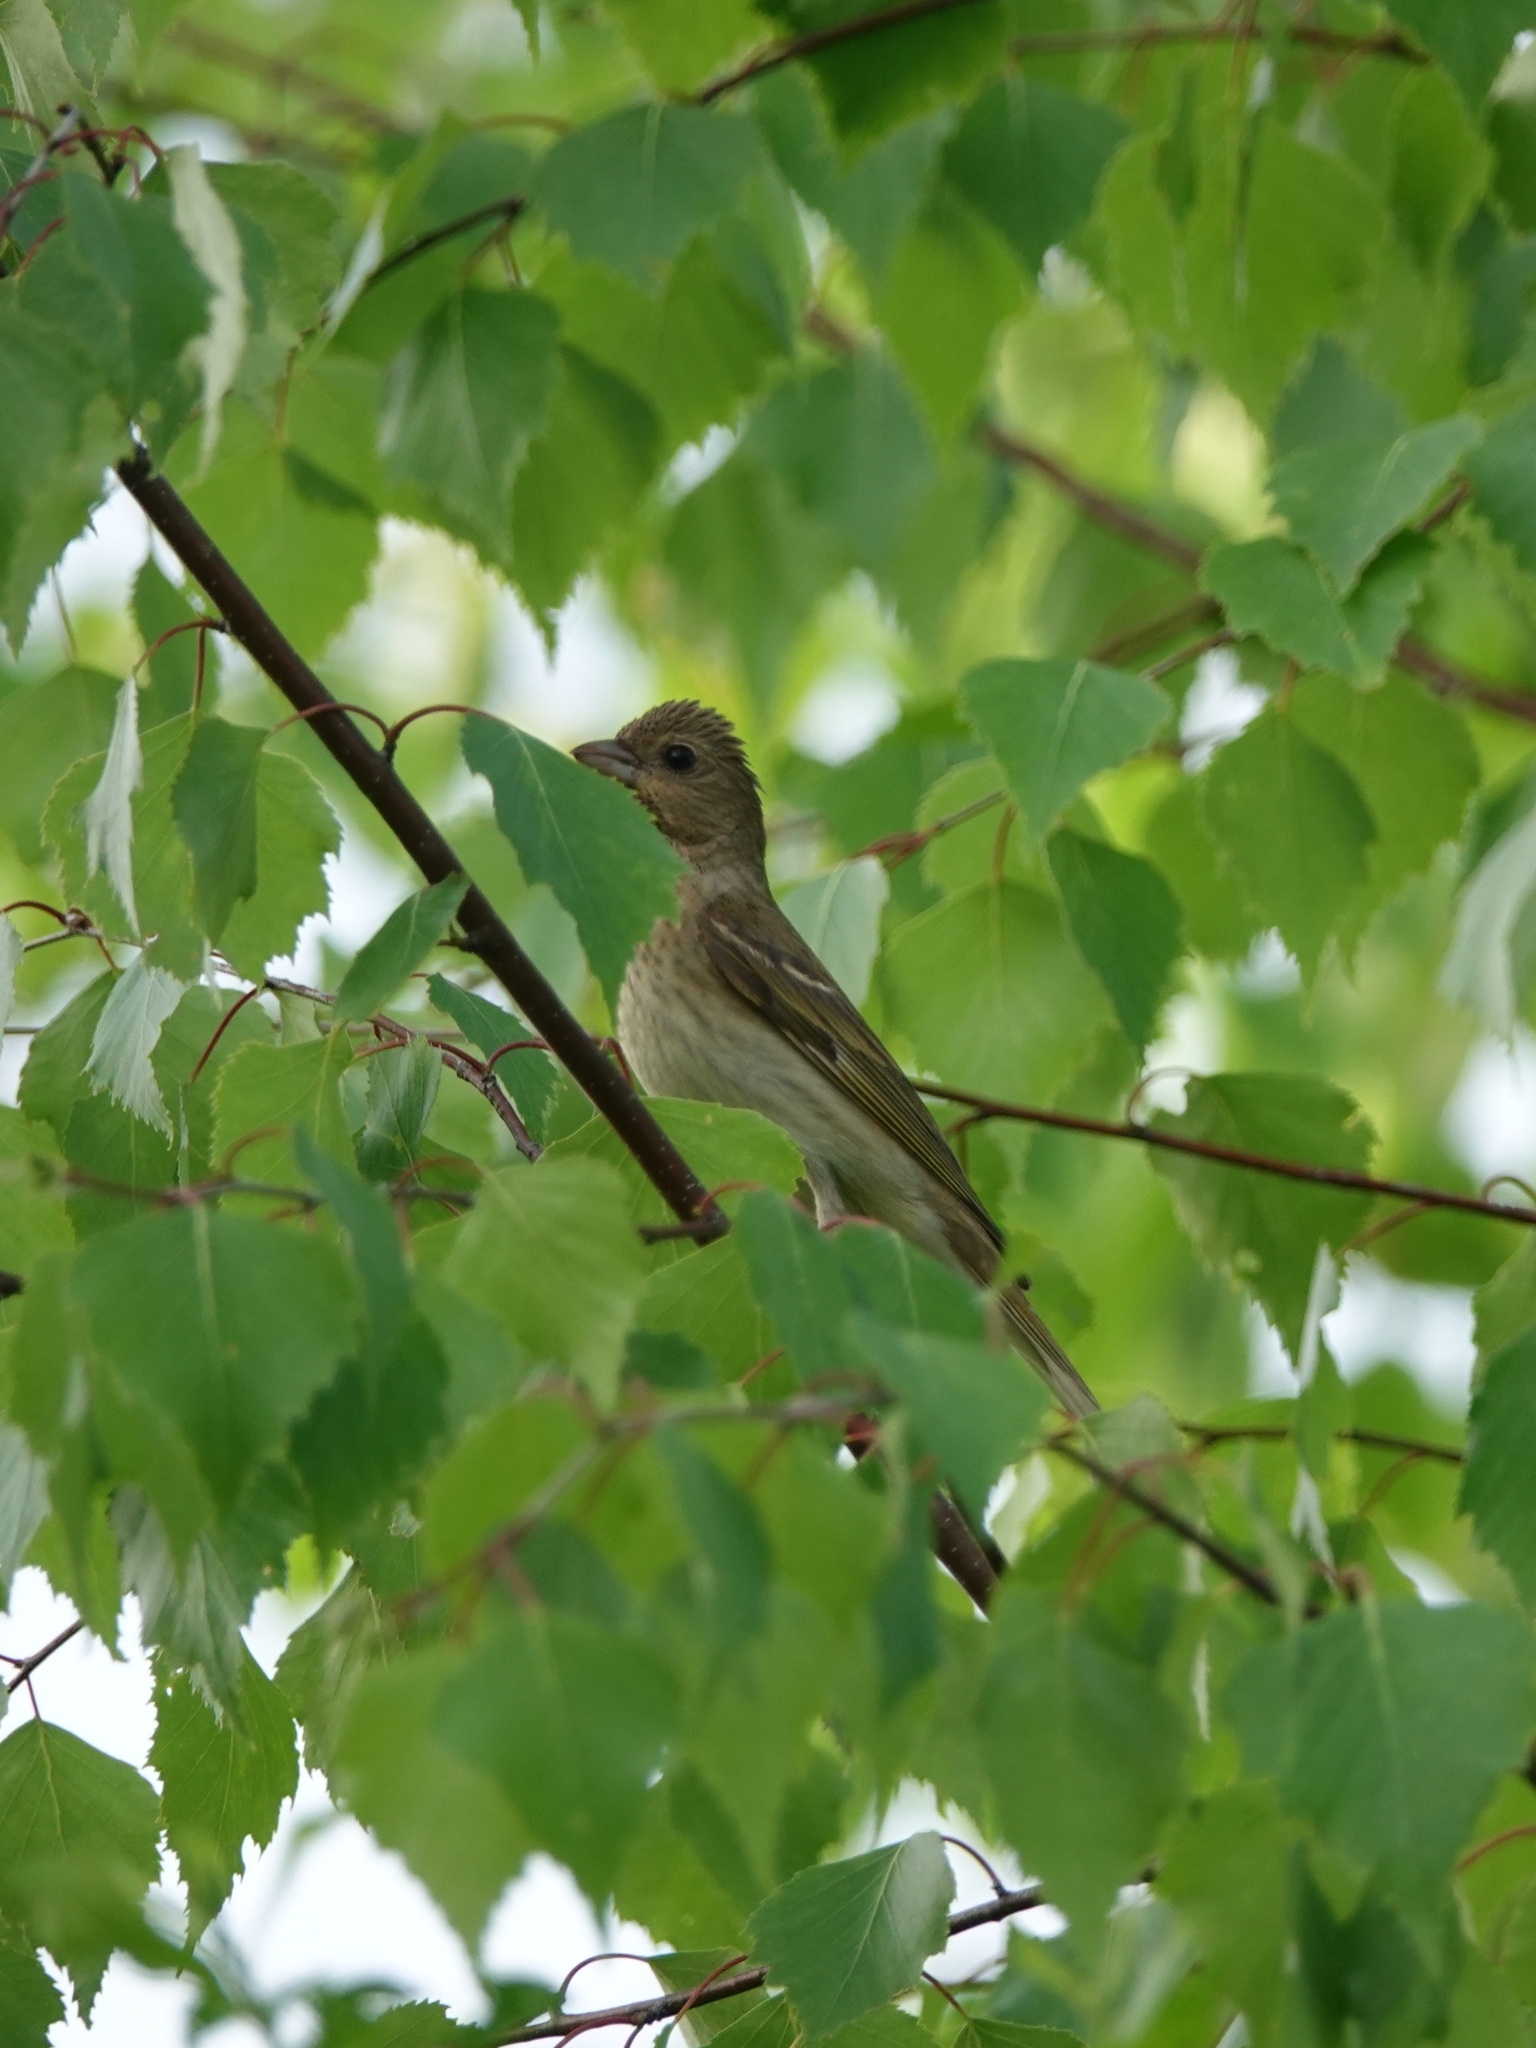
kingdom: Animalia
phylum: Chordata
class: Aves
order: Passeriformes
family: Fringillidae
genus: Carpodacus
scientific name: Carpodacus erythrinus
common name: Common rosefinch
